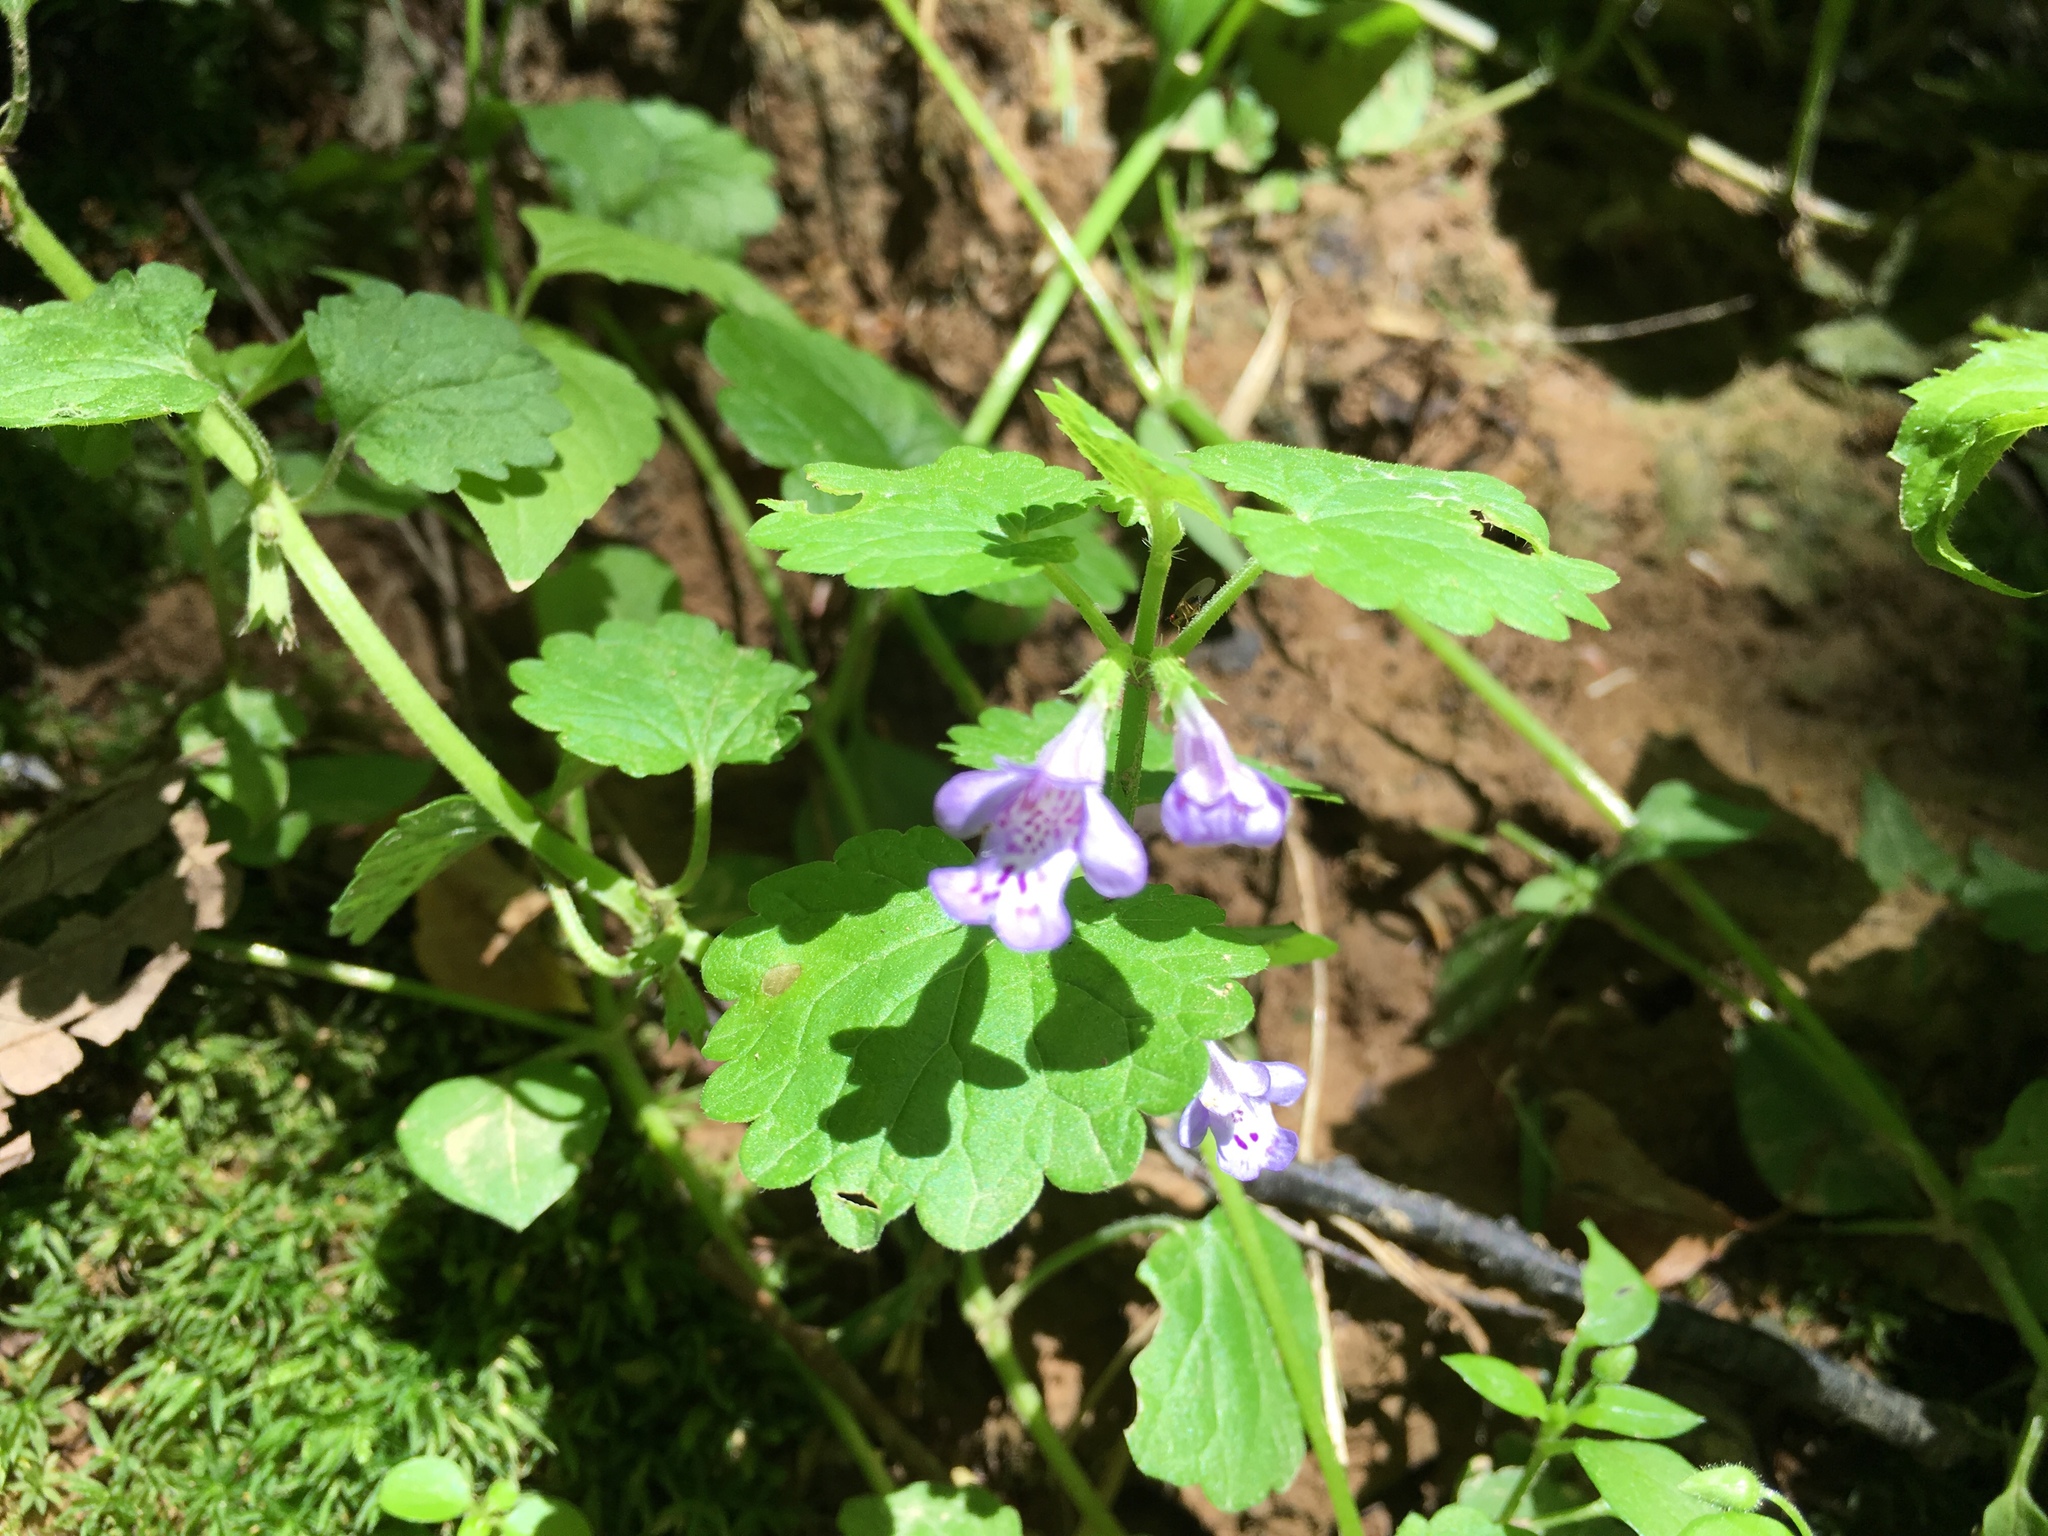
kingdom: Plantae
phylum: Tracheophyta
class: Magnoliopsida
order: Lamiales
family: Lamiaceae
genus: Glechoma
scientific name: Glechoma hederacea
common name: Ground ivy
